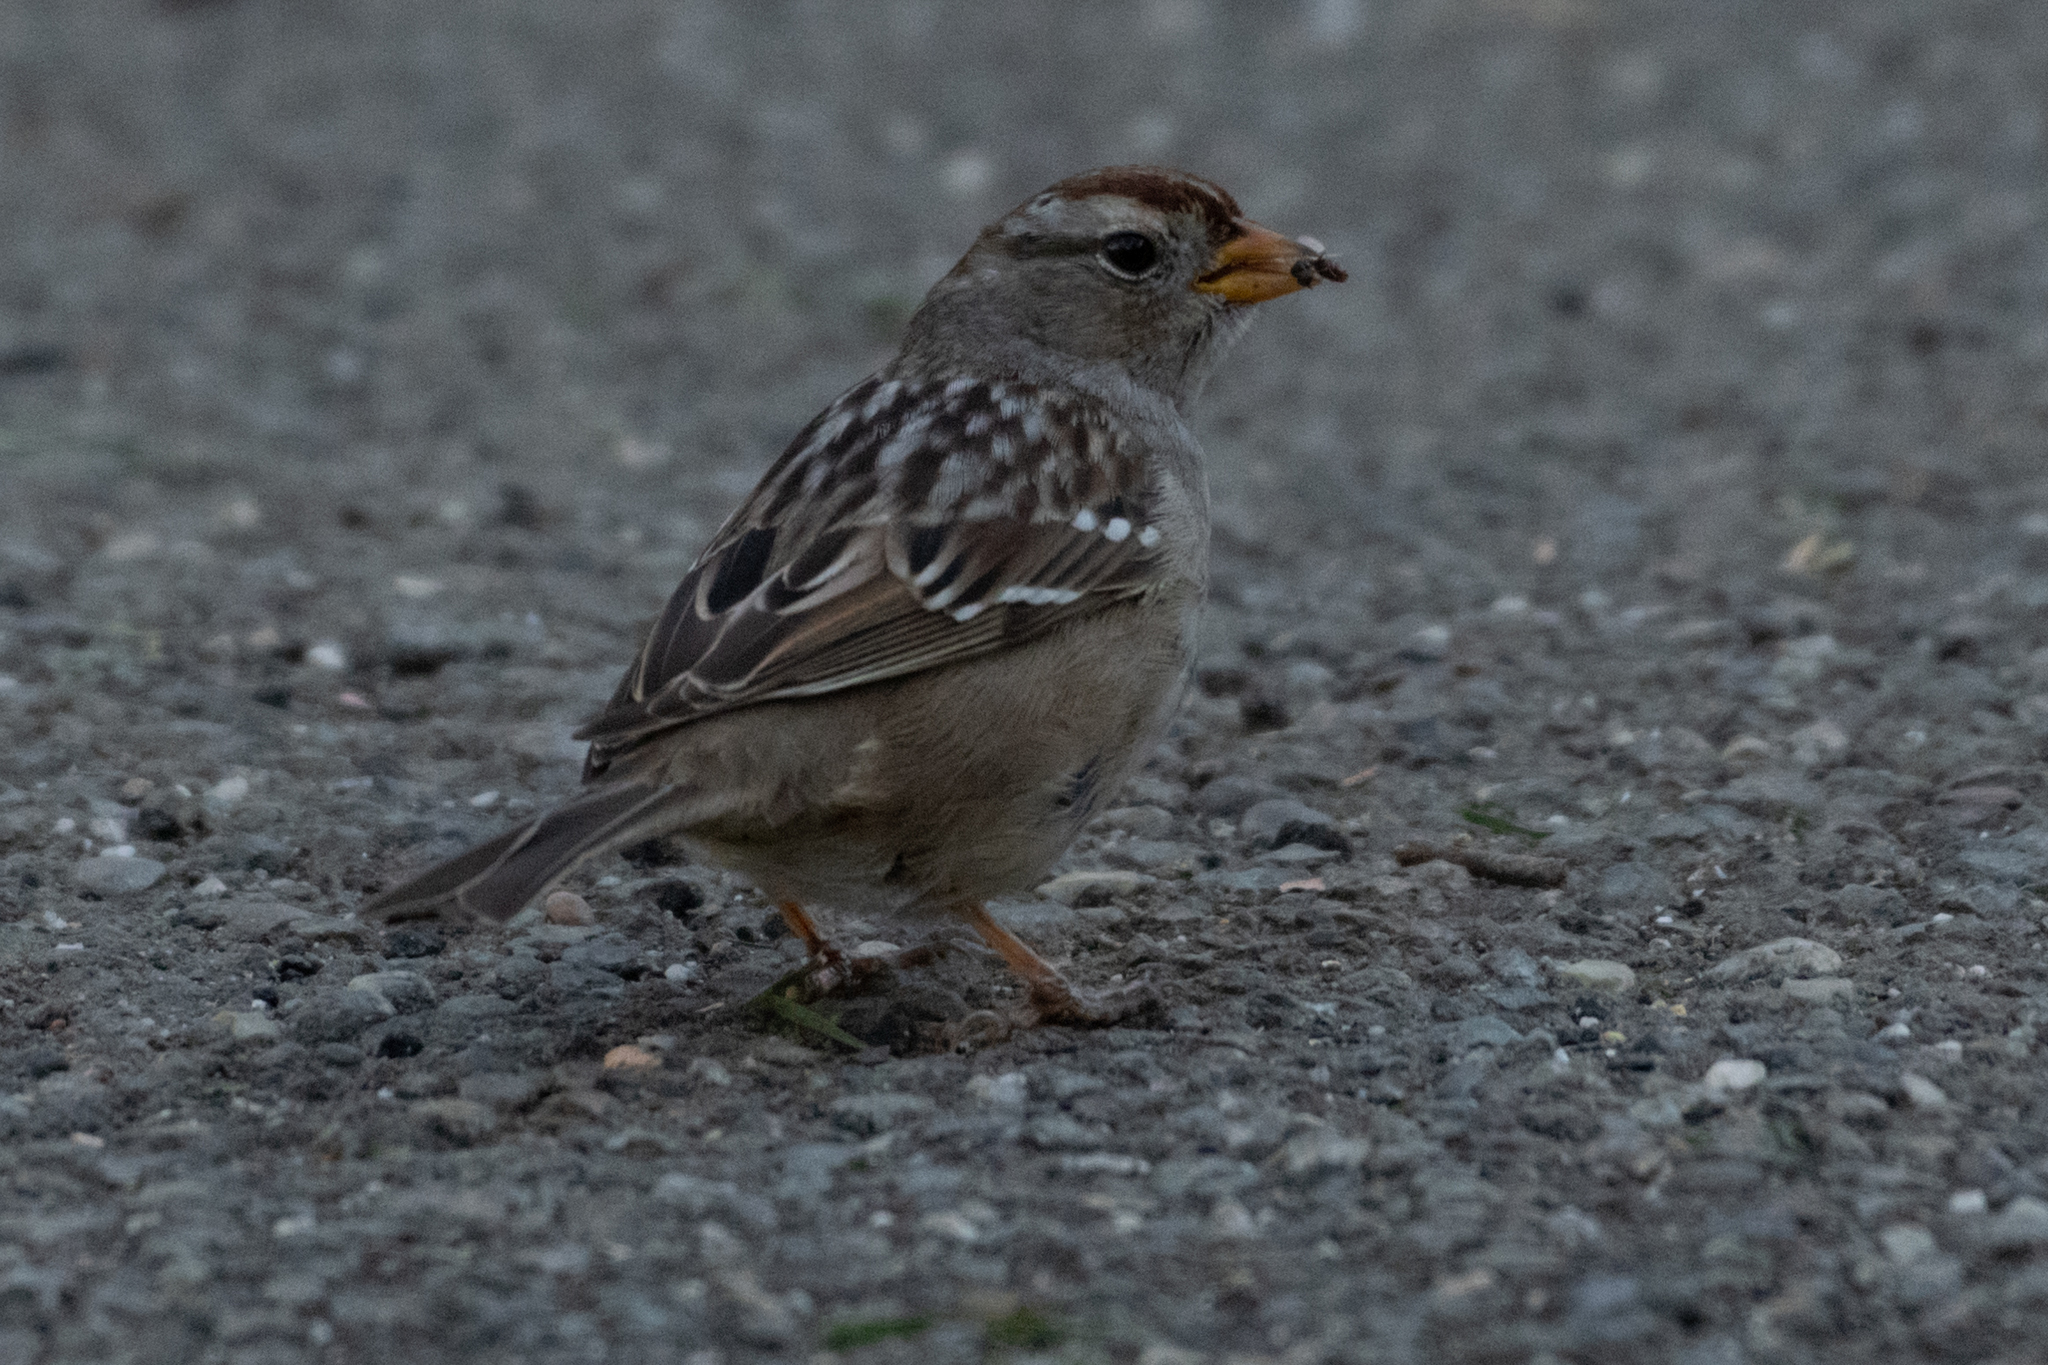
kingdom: Animalia
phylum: Chordata
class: Aves
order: Passeriformes
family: Passerellidae
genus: Zonotrichia
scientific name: Zonotrichia leucophrys
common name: White-crowned sparrow
